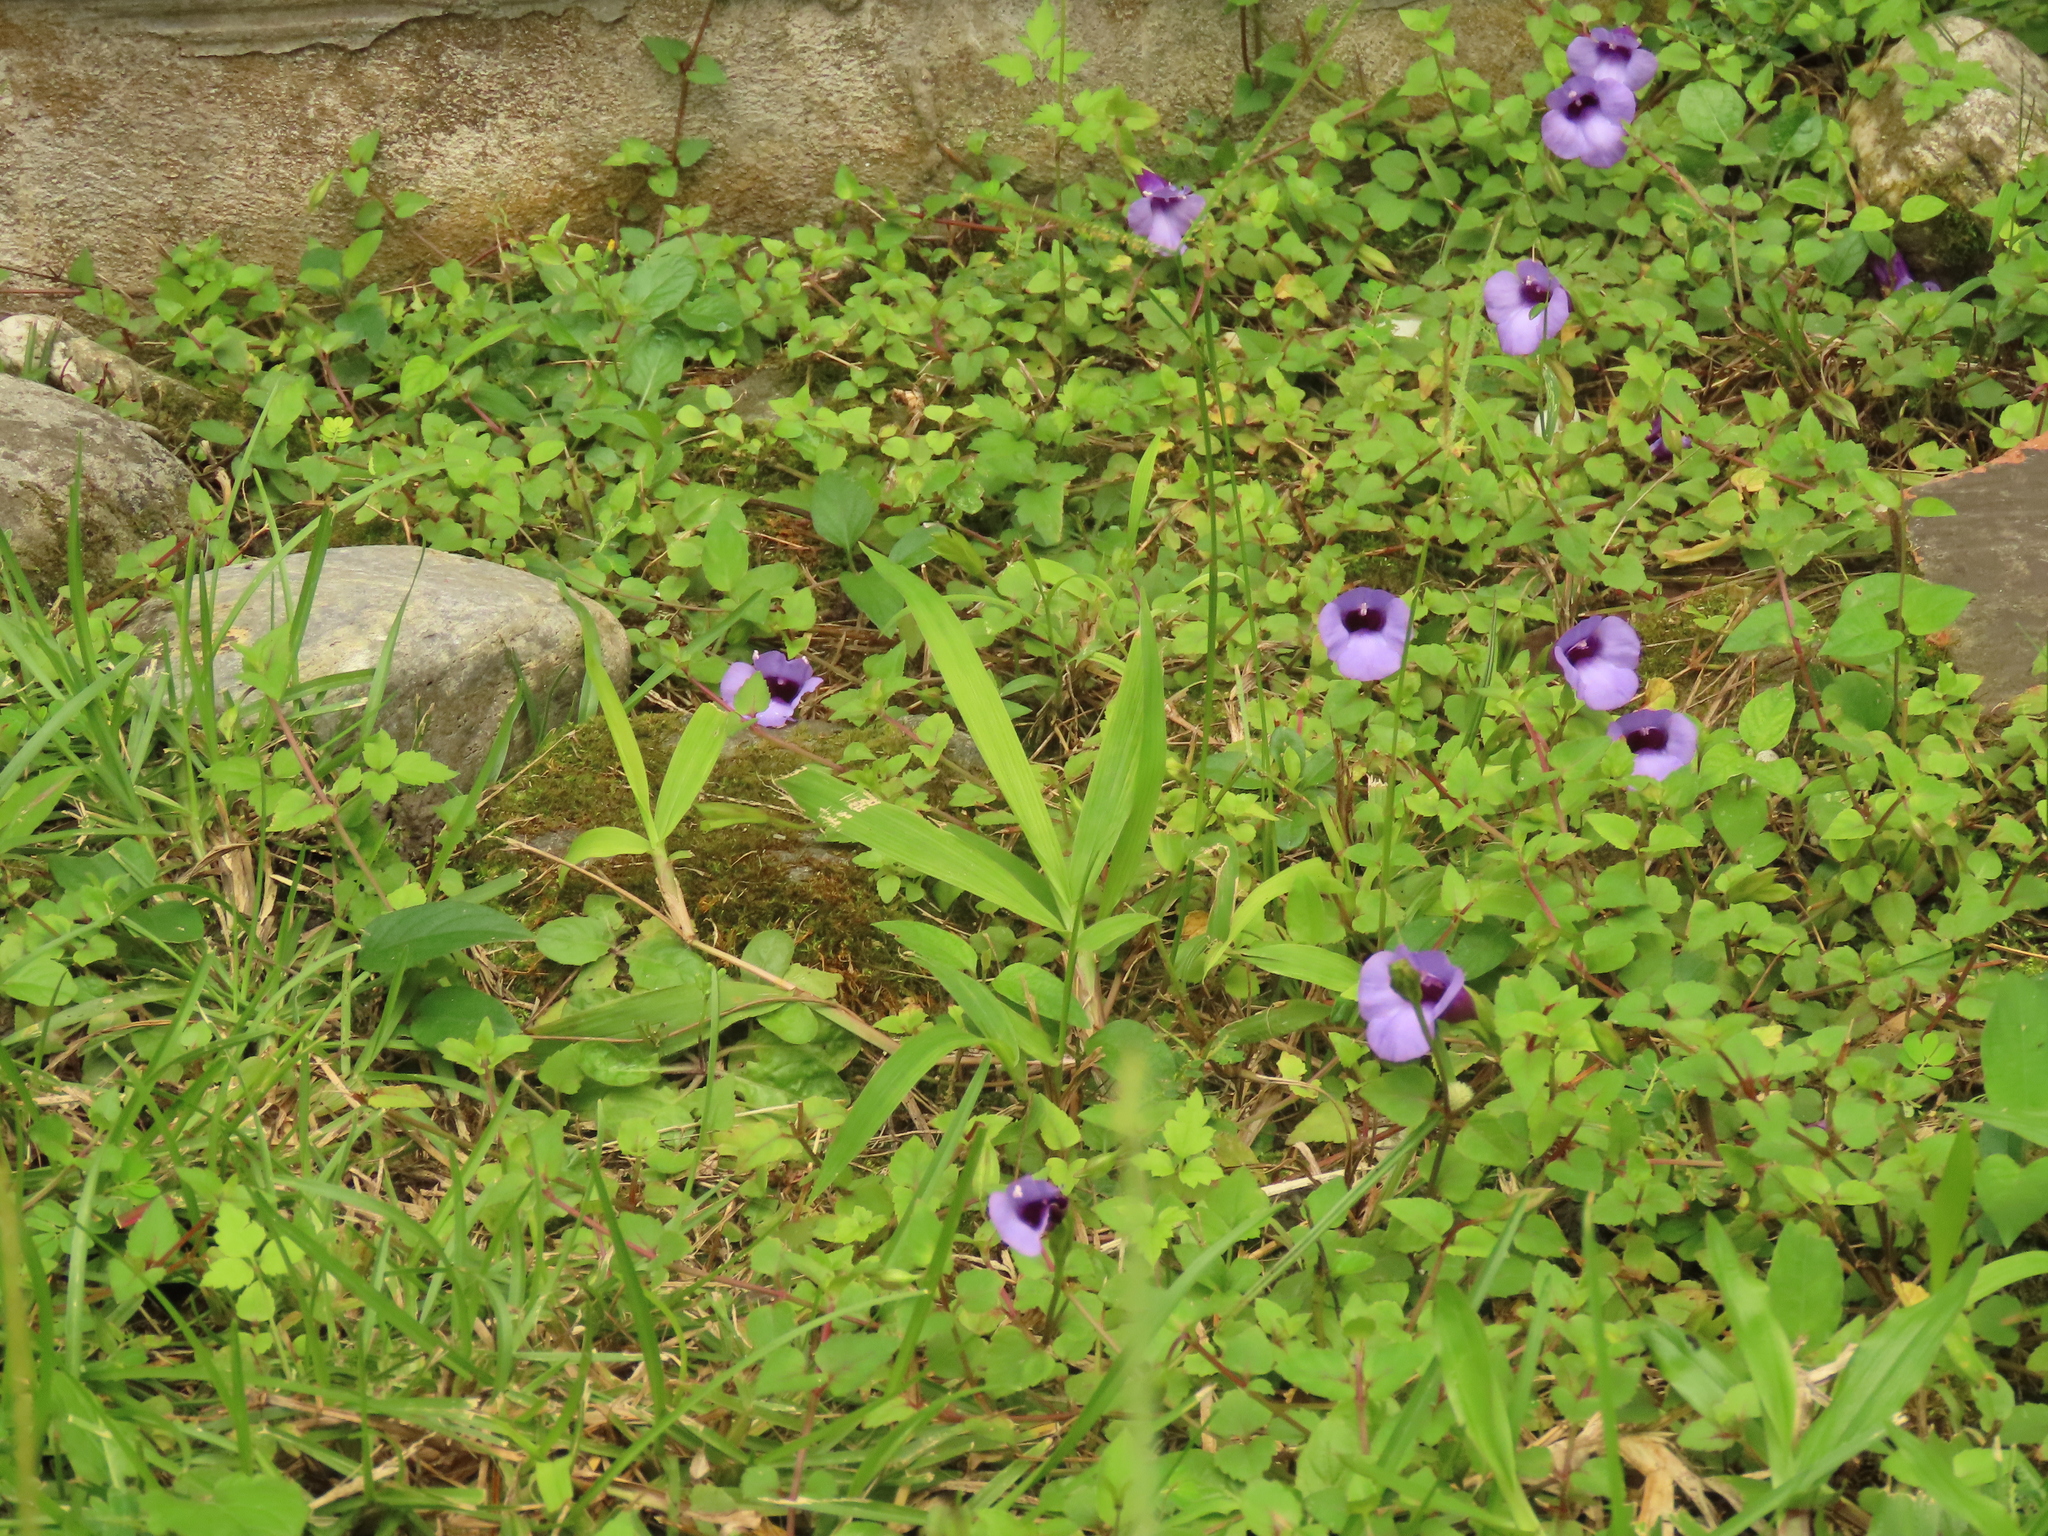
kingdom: Plantae
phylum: Tracheophyta
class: Magnoliopsida
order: Lamiales
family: Linderniaceae
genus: Torenia
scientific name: Torenia concolor
